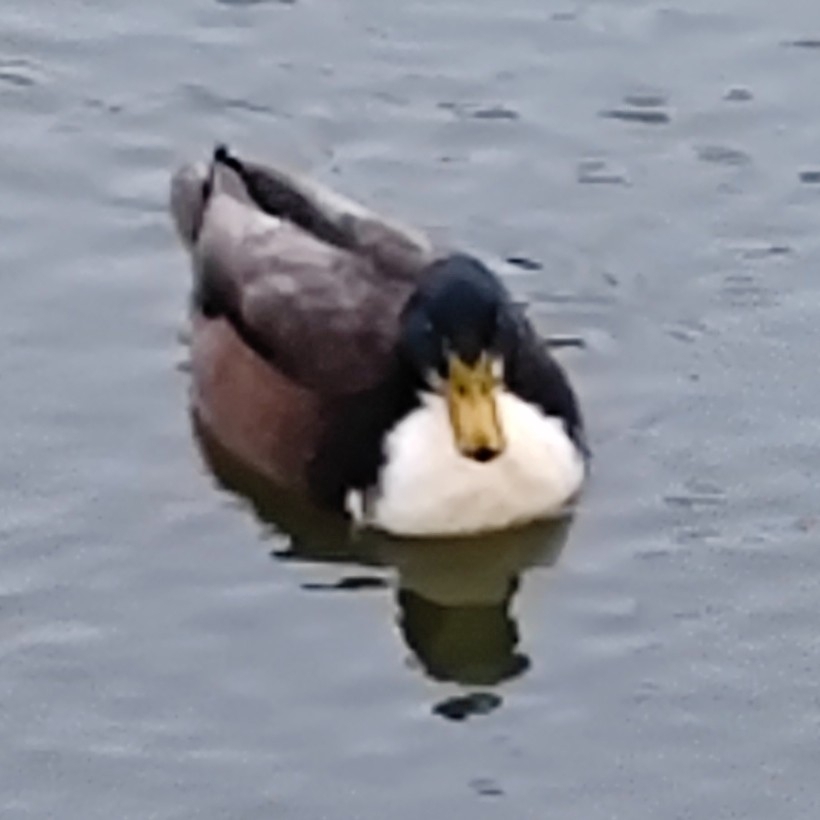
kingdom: Animalia
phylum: Chordata
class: Aves
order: Anseriformes
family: Anatidae
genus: Anas
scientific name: Anas platyrhynchos
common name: Mallard
